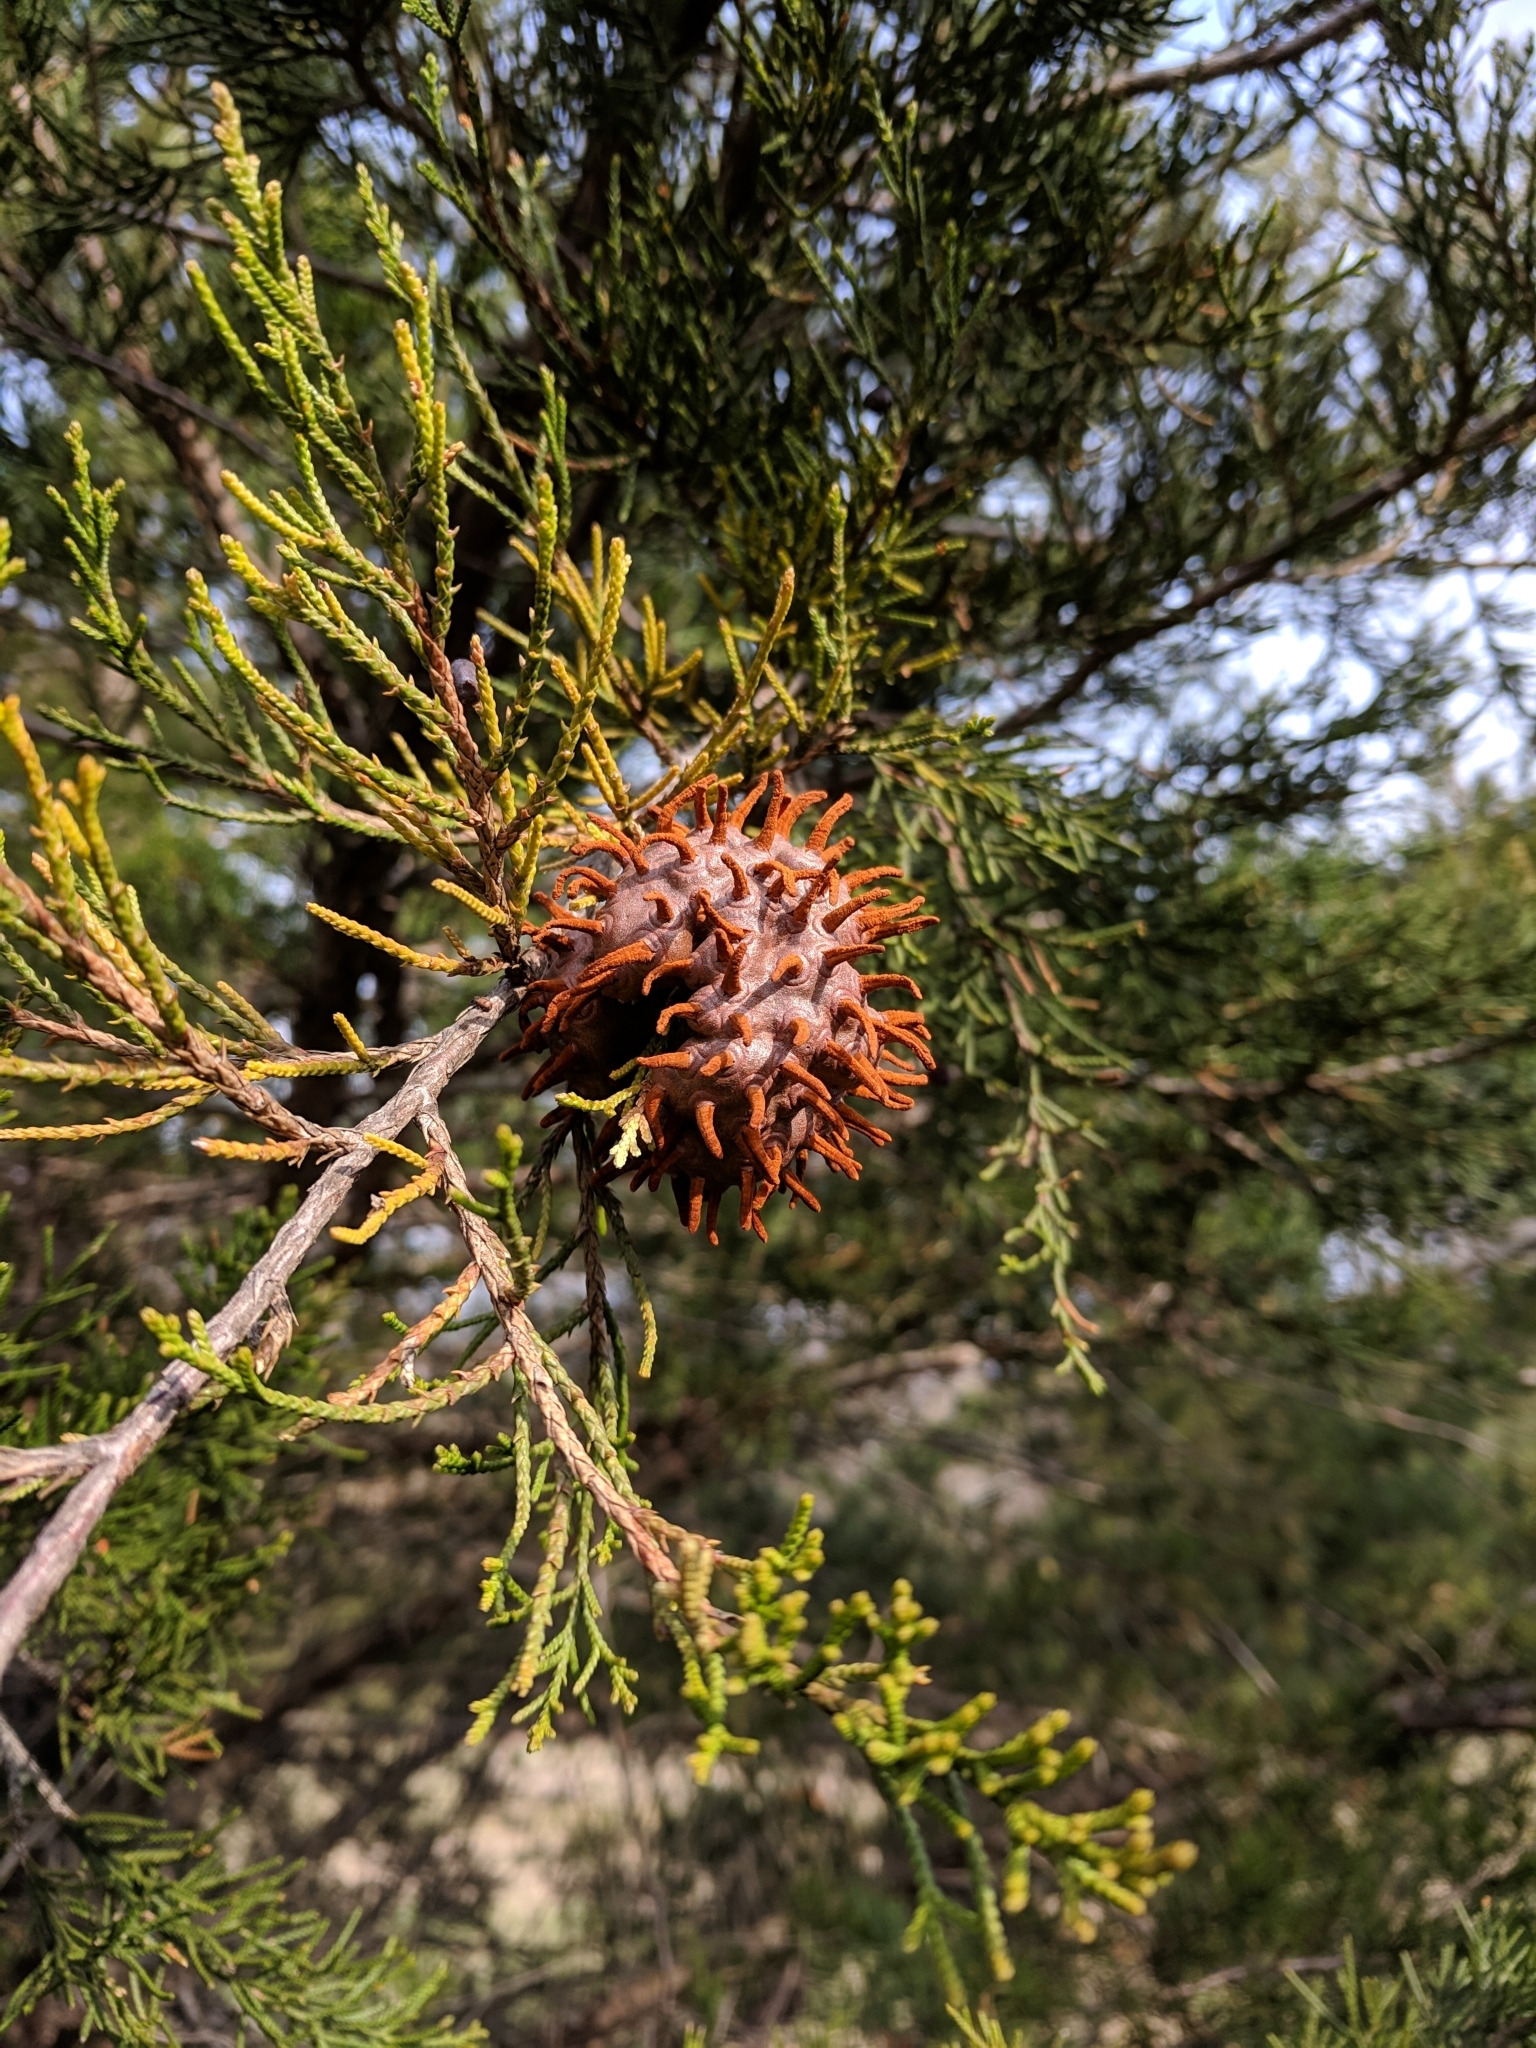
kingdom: Fungi
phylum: Basidiomycota
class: Pucciniomycetes
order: Pucciniales
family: Gymnosporangiaceae
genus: Gymnosporangium
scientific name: Gymnosporangium juniperi-virginianae
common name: Juniper-apple rust
